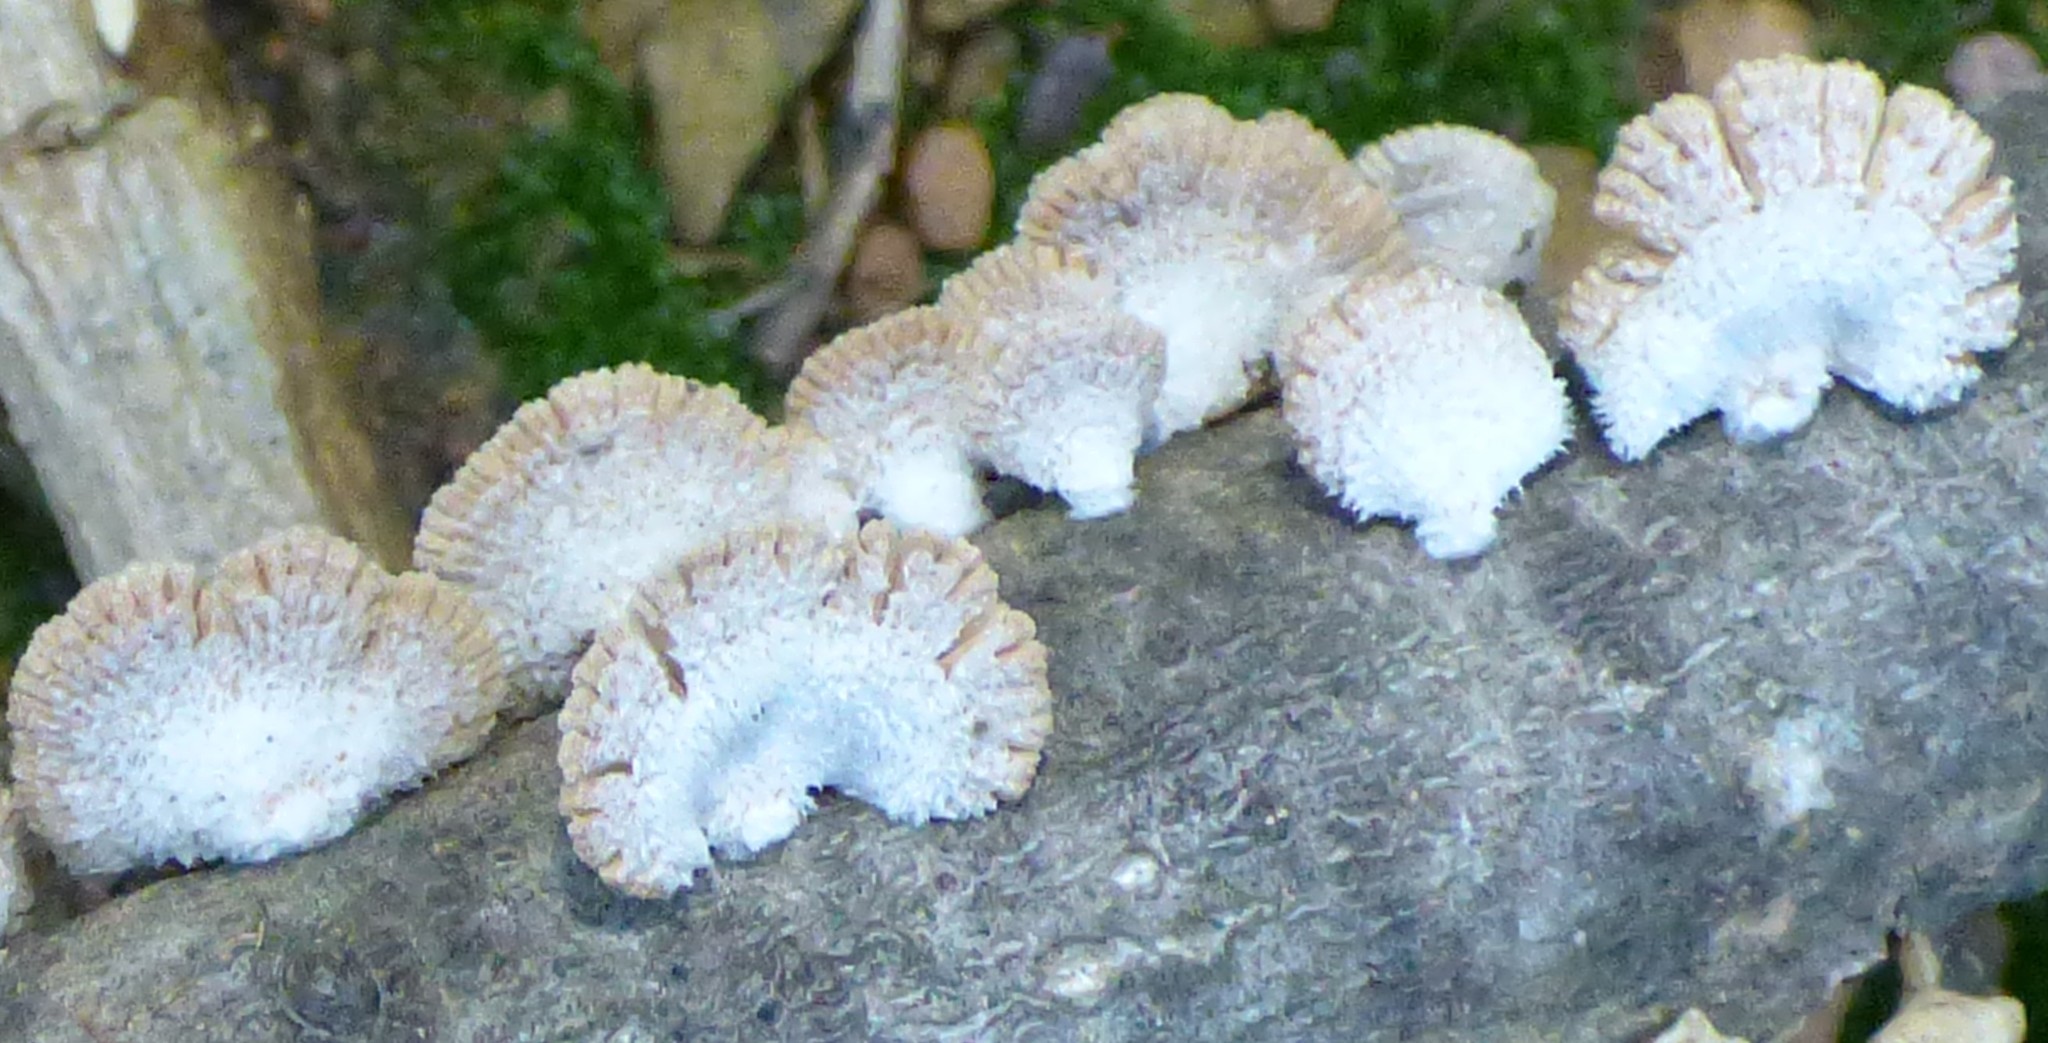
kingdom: Fungi
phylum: Basidiomycota
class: Agaricomycetes
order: Agaricales
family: Schizophyllaceae
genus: Schizophyllum
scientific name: Schizophyllum commune
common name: Common porecrust
